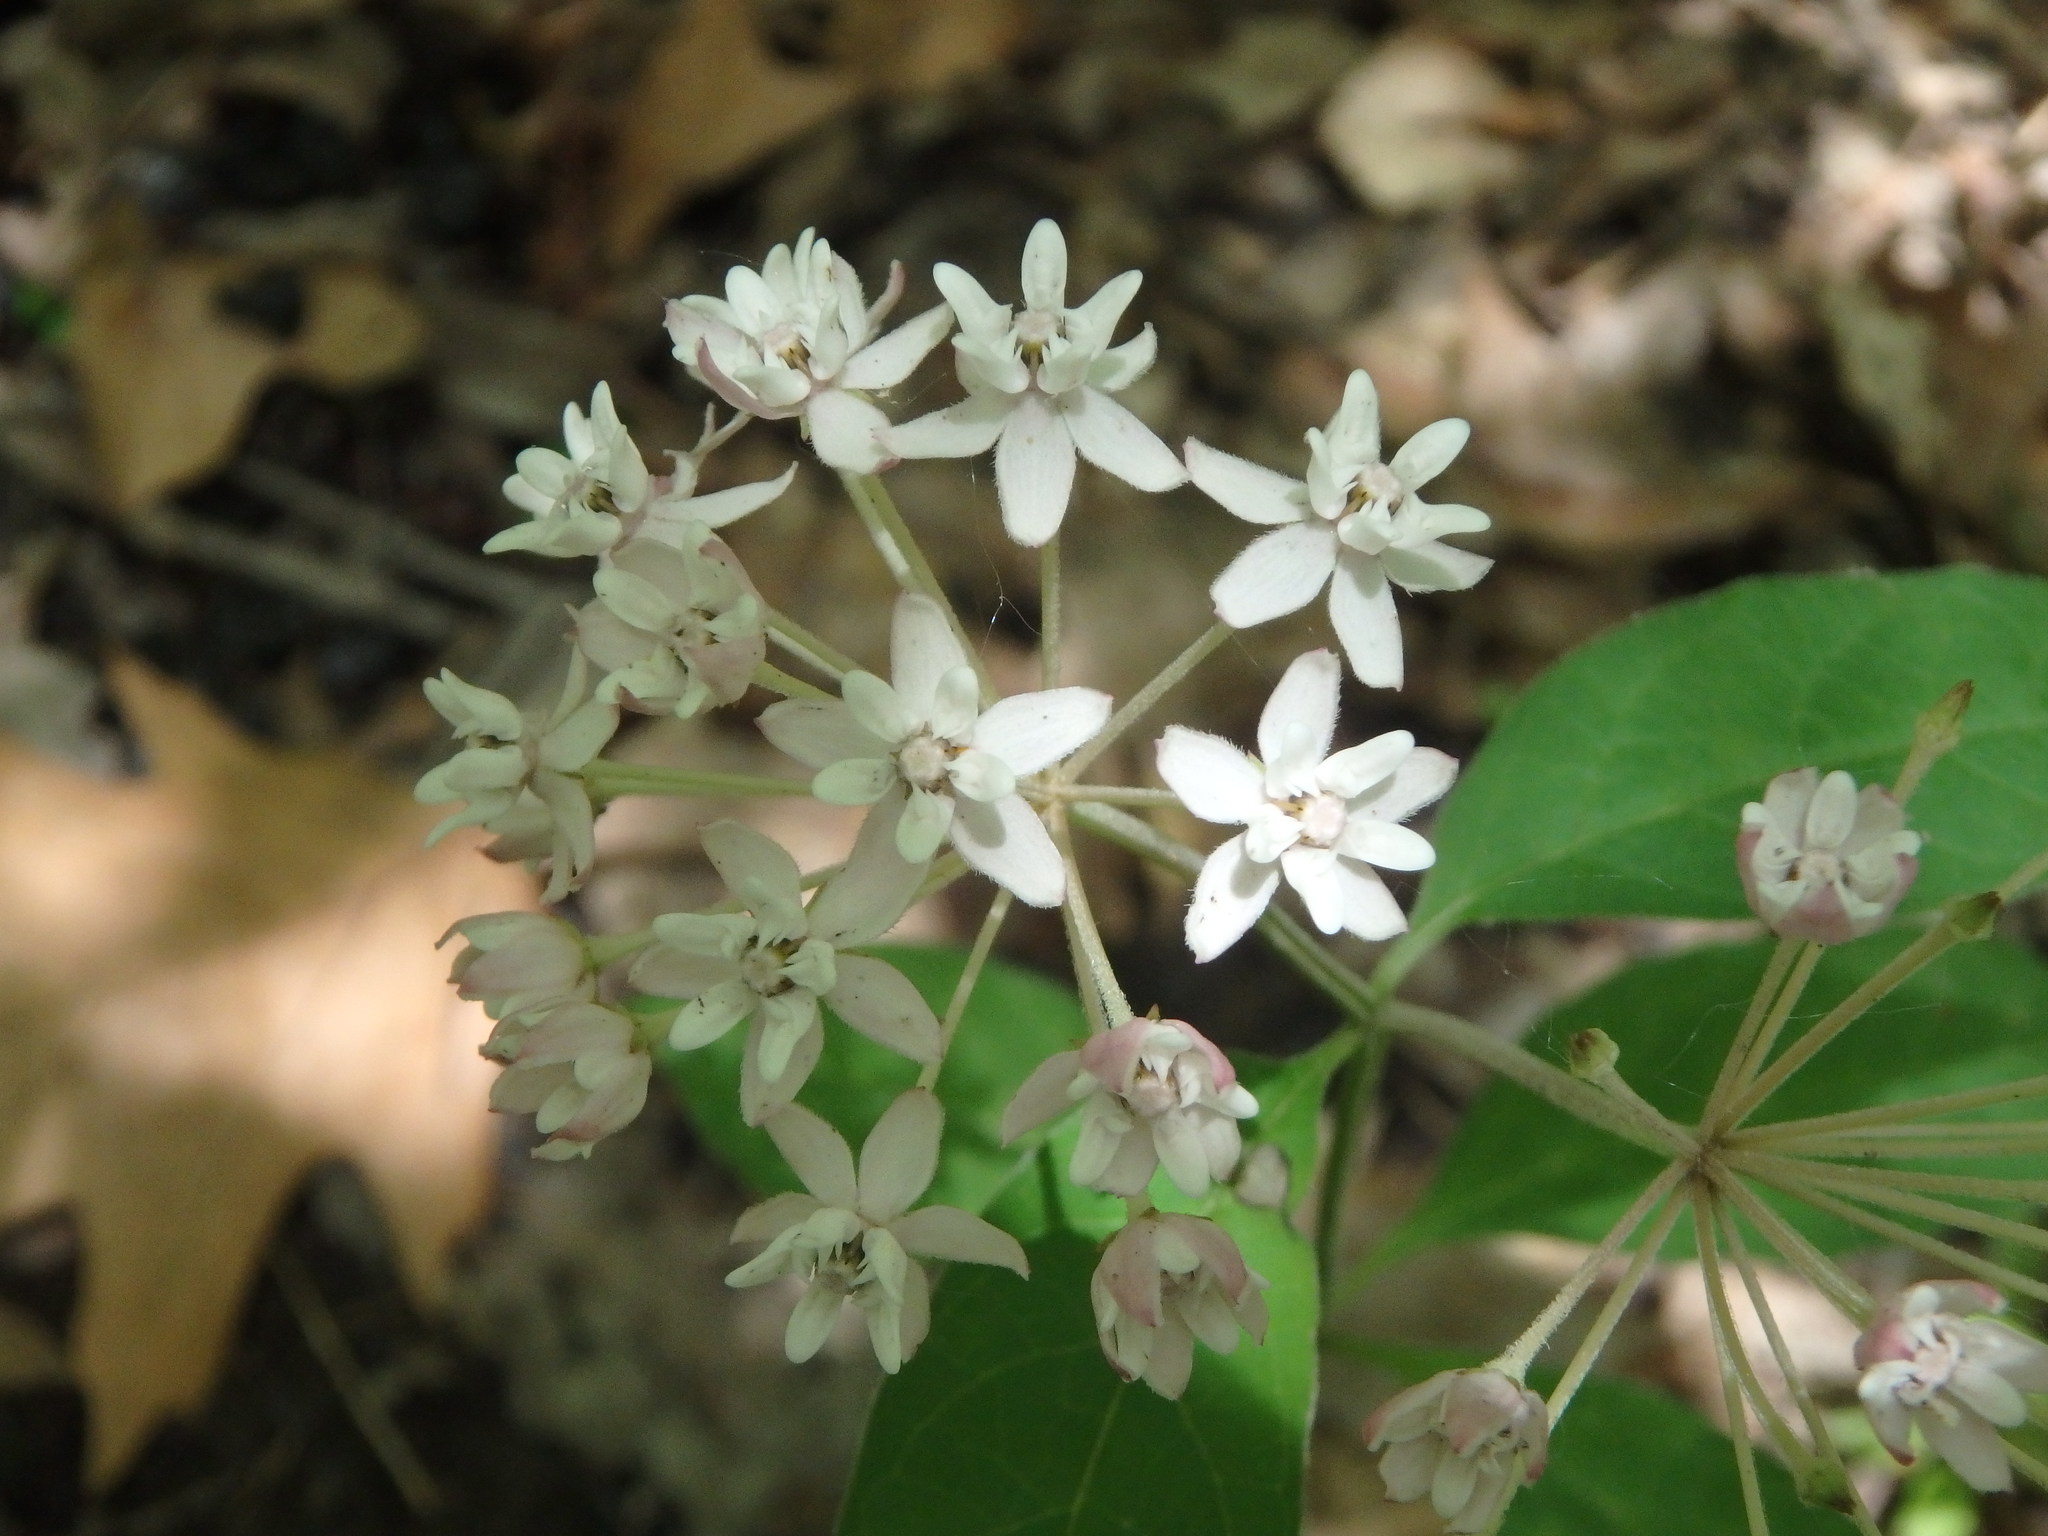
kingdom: Plantae
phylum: Tracheophyta
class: Magnoliopsida
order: Gentianales
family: Apocynaceae
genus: Asclepias
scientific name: Asclepias quadrifolia
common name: Whorled milkweed
